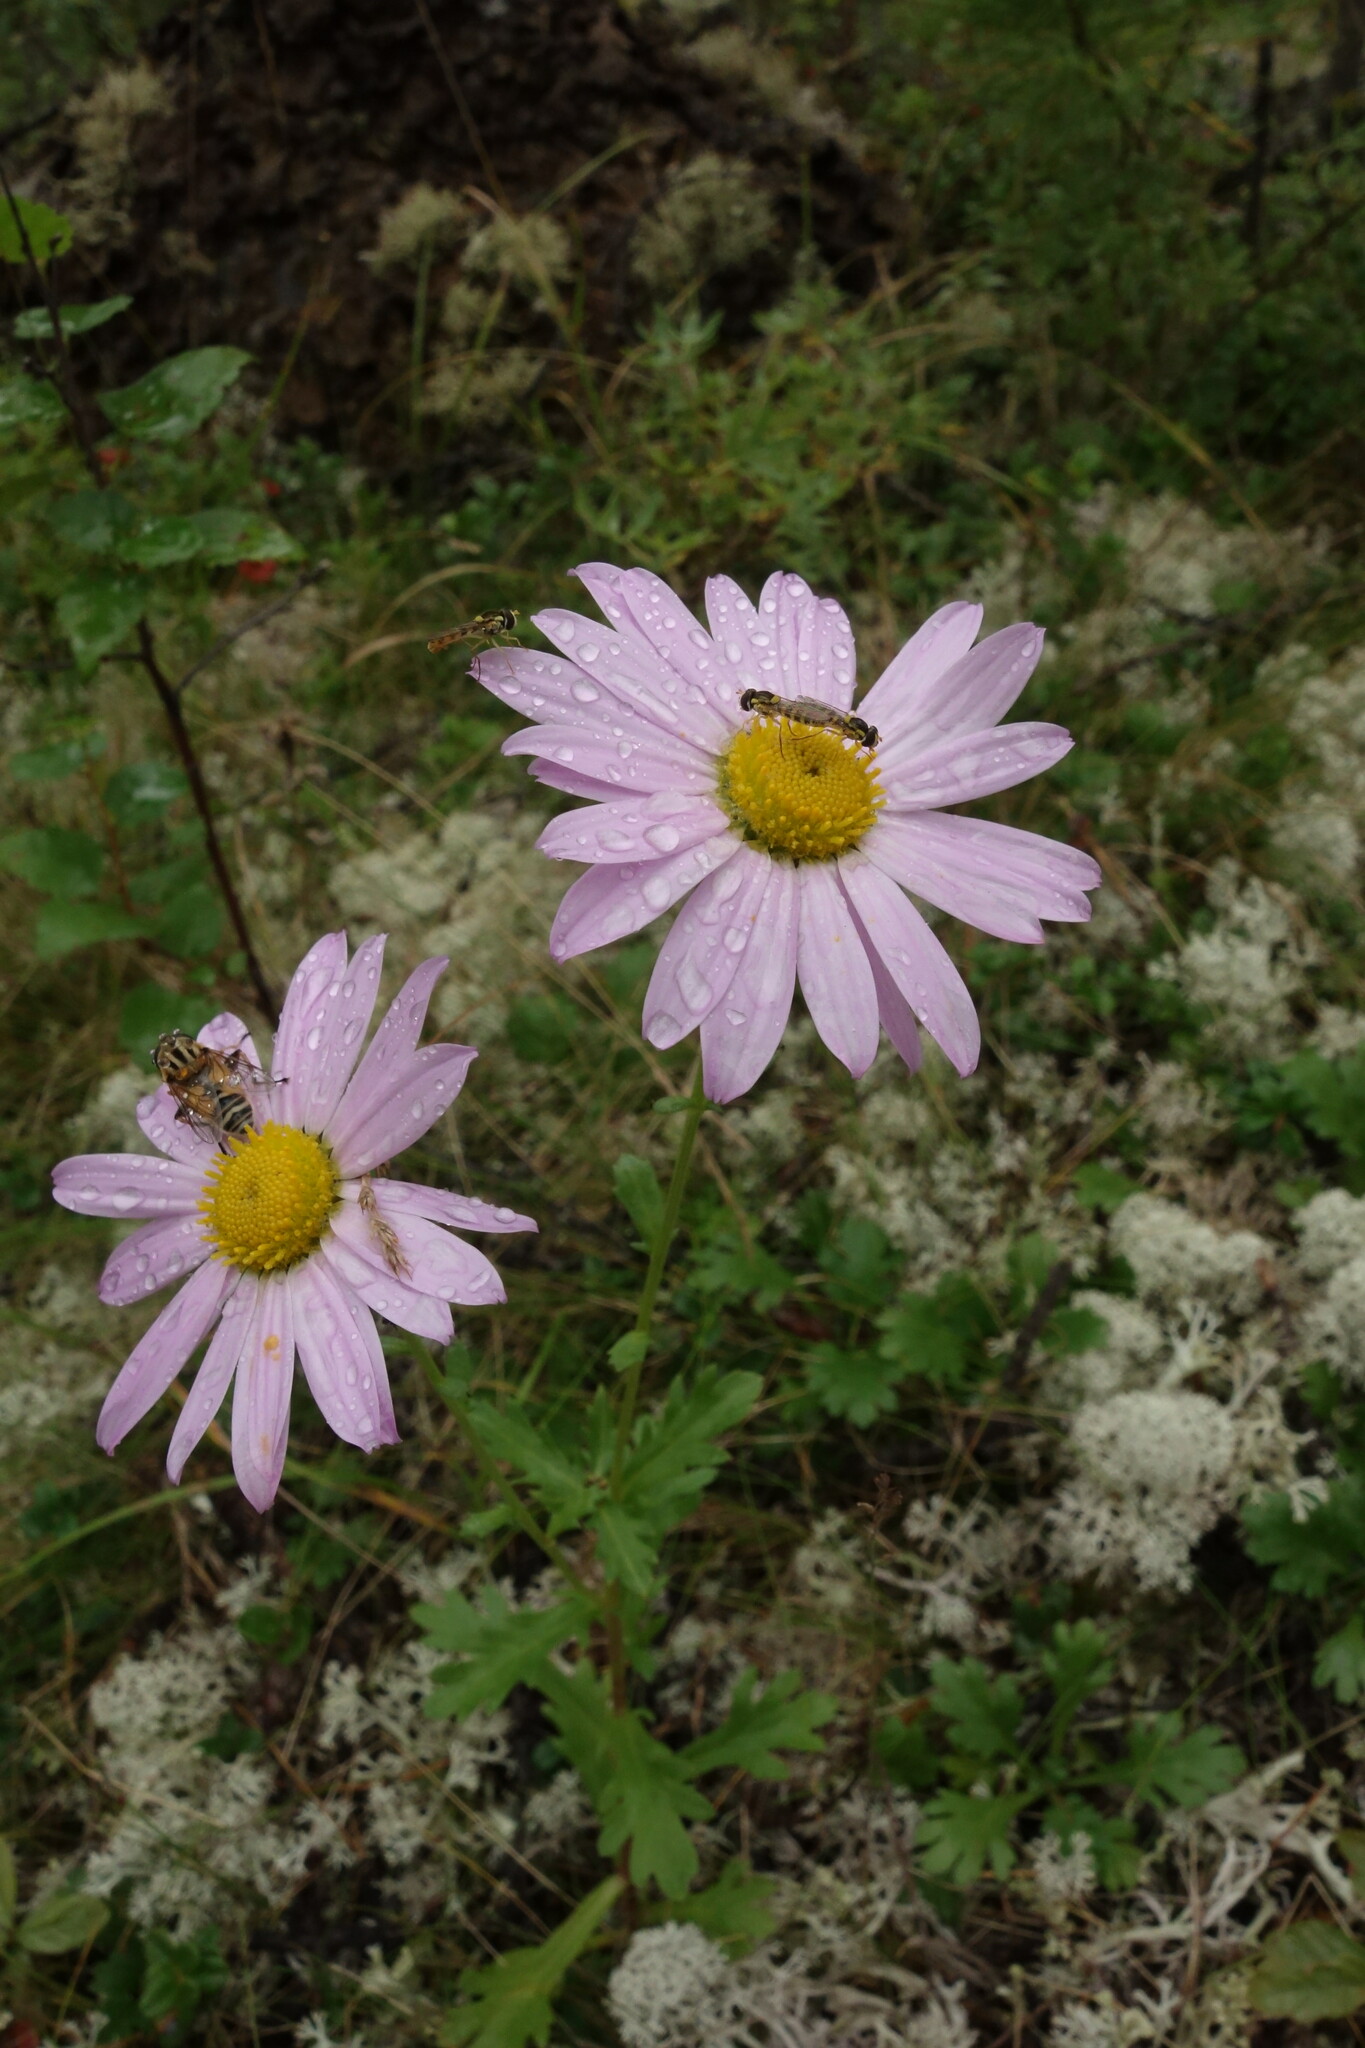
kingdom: Plantae
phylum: Tracheophyta
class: Magnoliopsida
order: Asterales
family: Asteraceae
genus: Chrysanthemum
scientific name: Chrysanthemum zawadzkii
